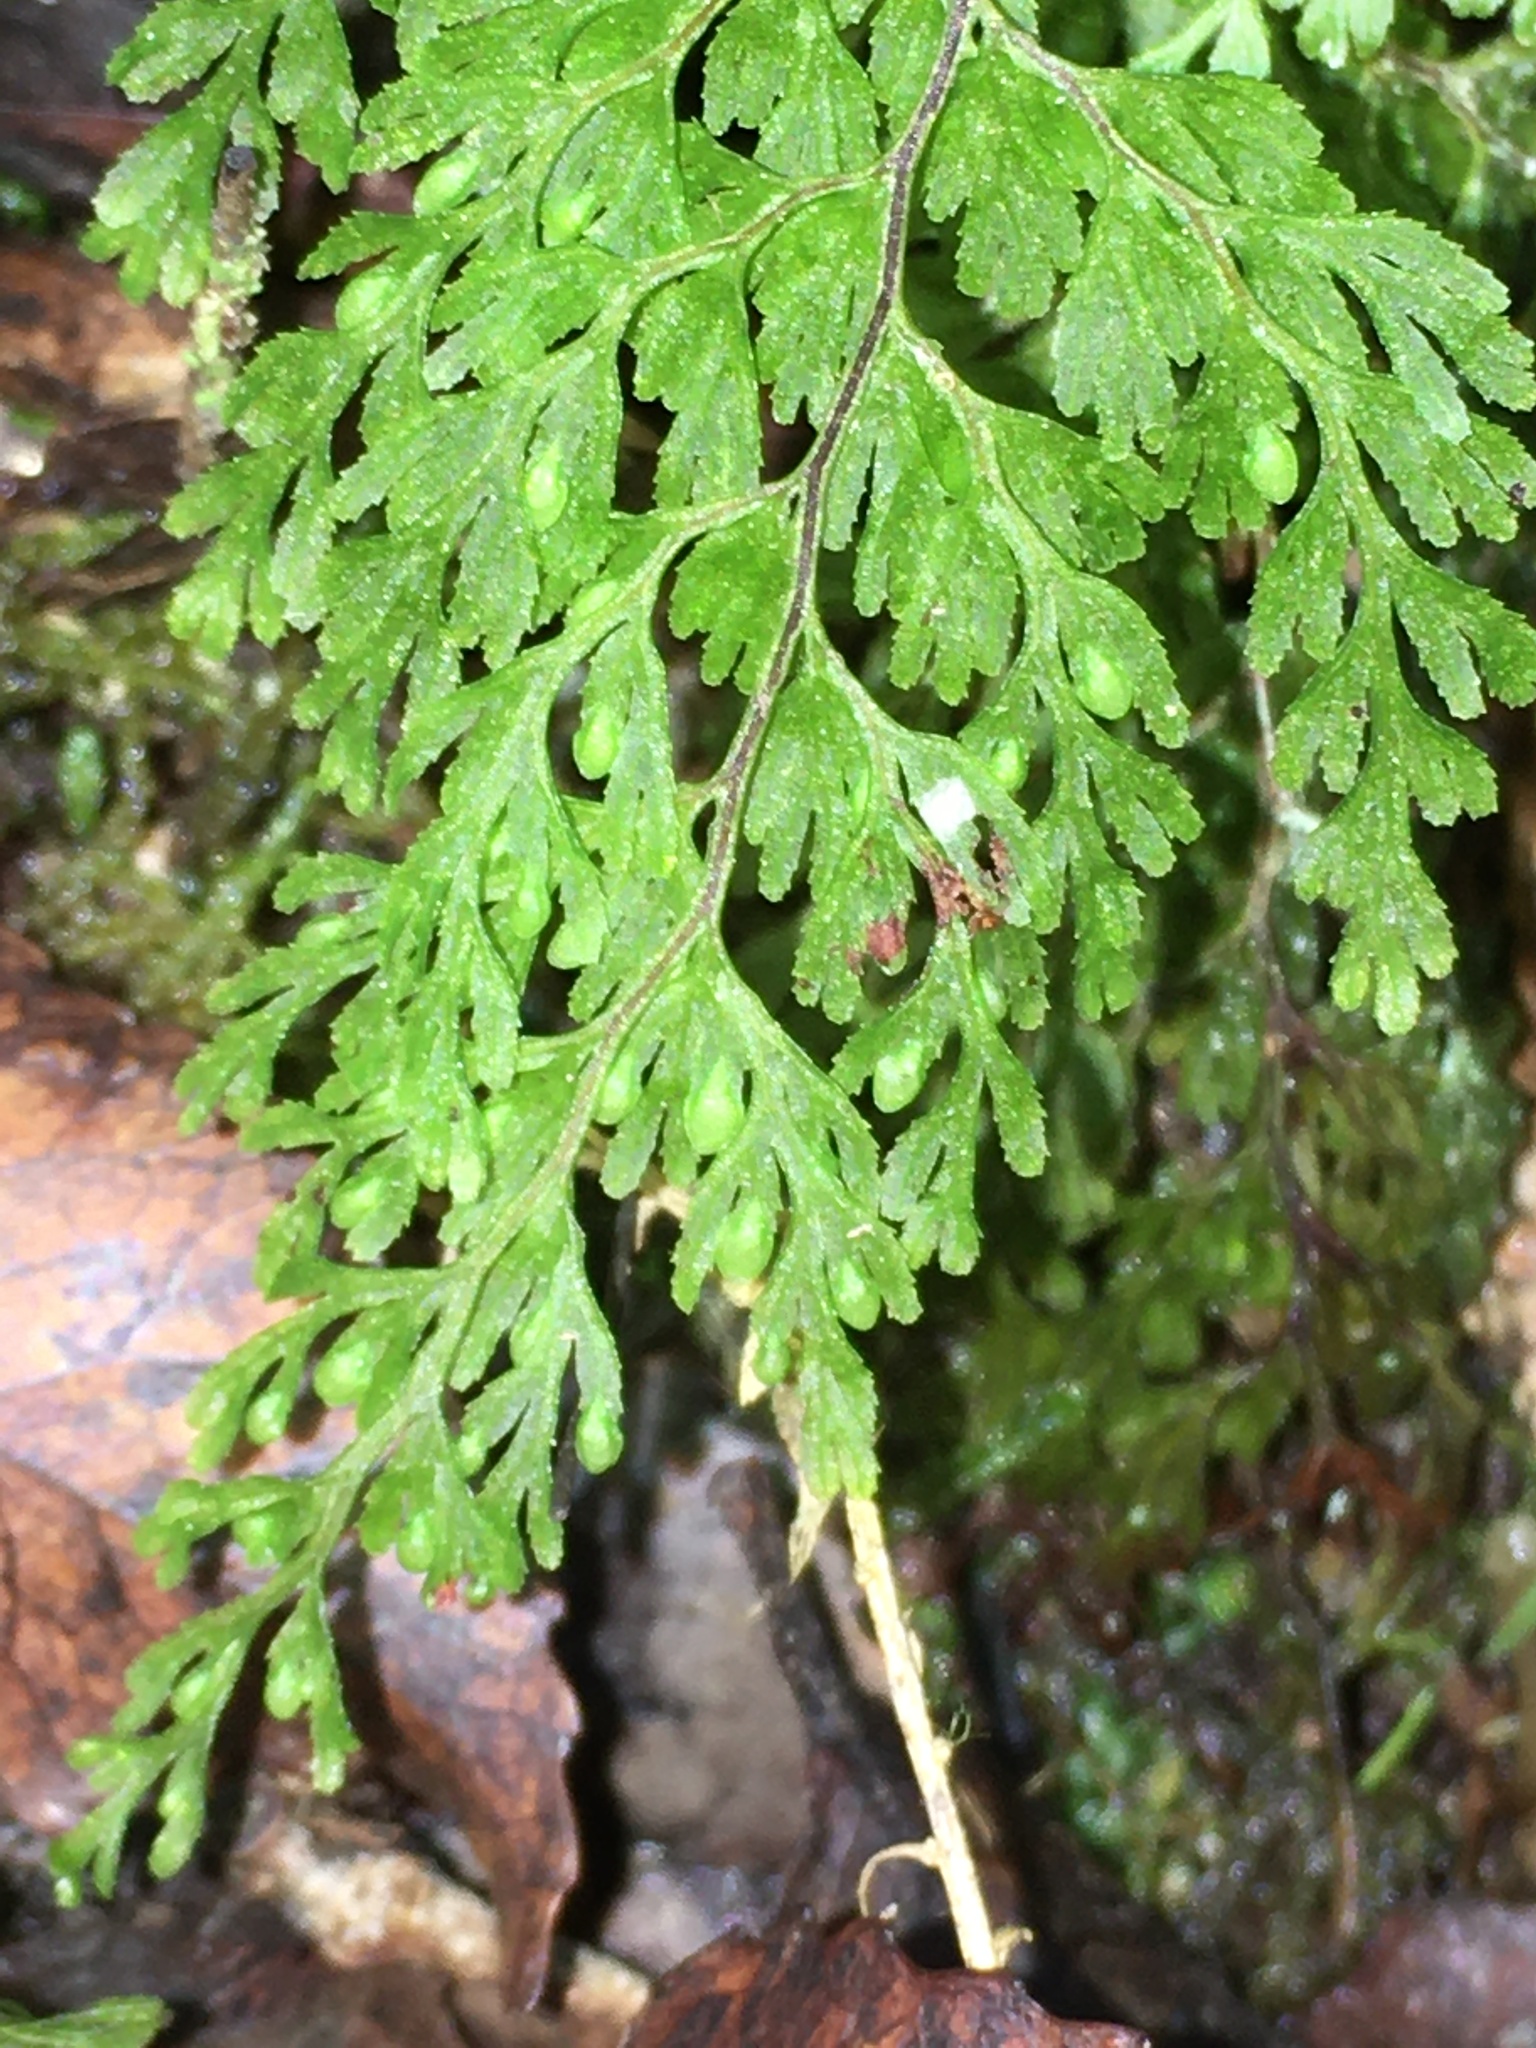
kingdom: Plantae
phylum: Tracheophyta
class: Polypodiopsida
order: Hymenophyllales
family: Hymenophyllaceae
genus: Hymenophyllum
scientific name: Hymenophyllum bivalve
